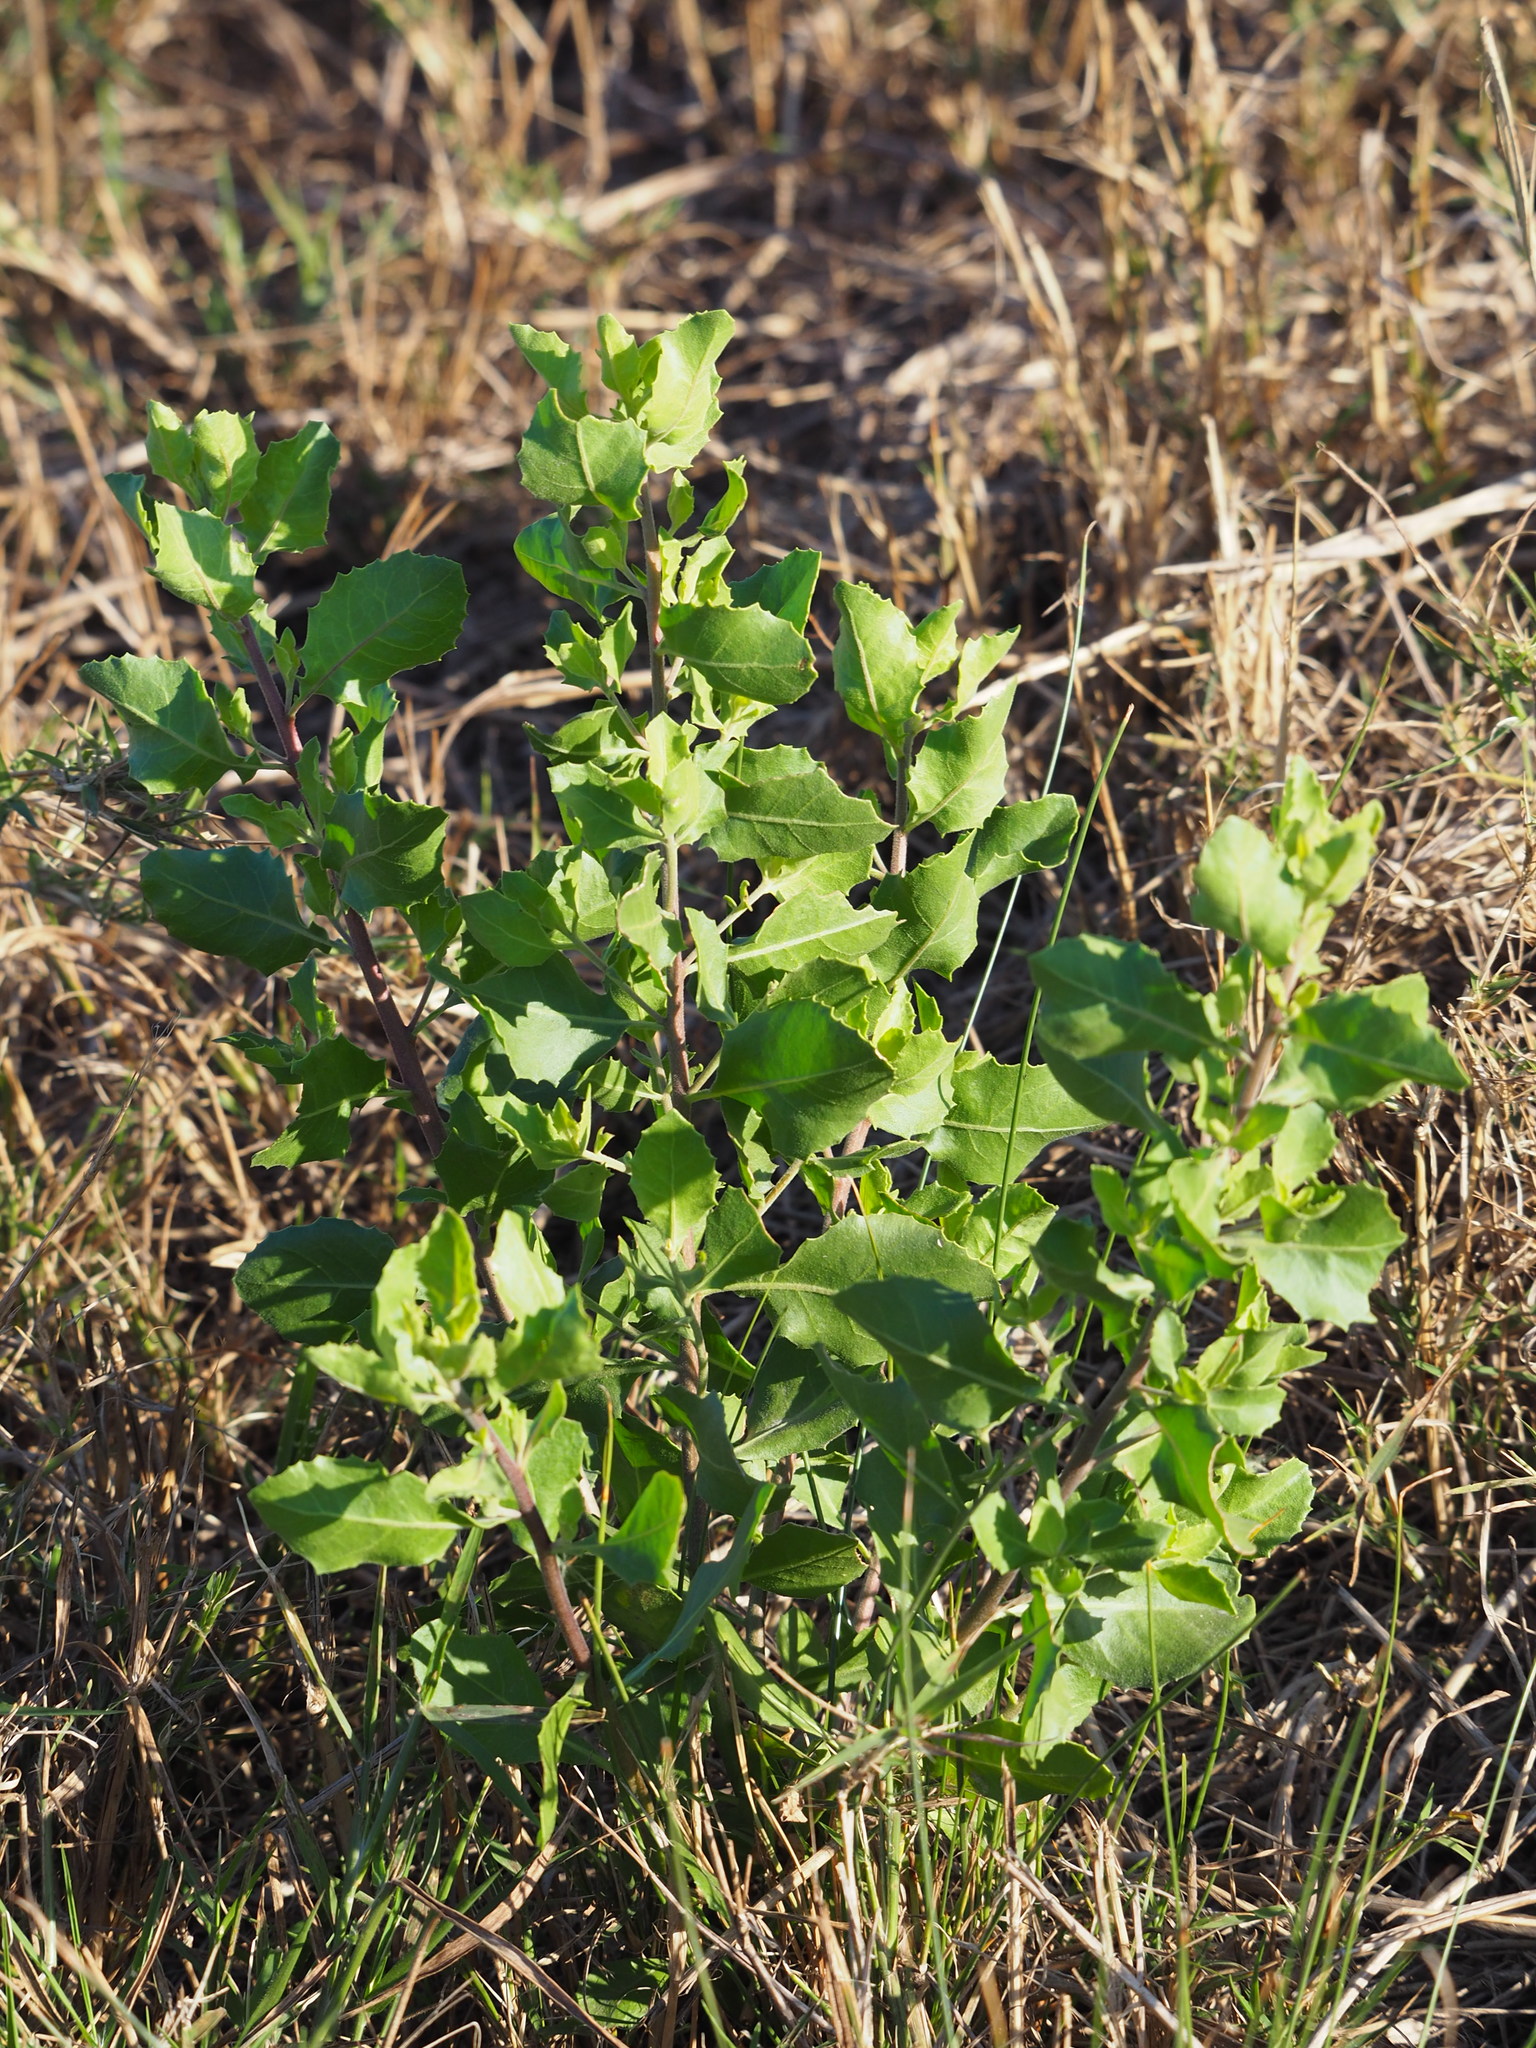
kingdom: Plantae
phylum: Tracheophyta
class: Magnoliopsida
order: Asterales
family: Asteraceae
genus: Pluchea
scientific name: Pluchea indica
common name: Indian fleabane
